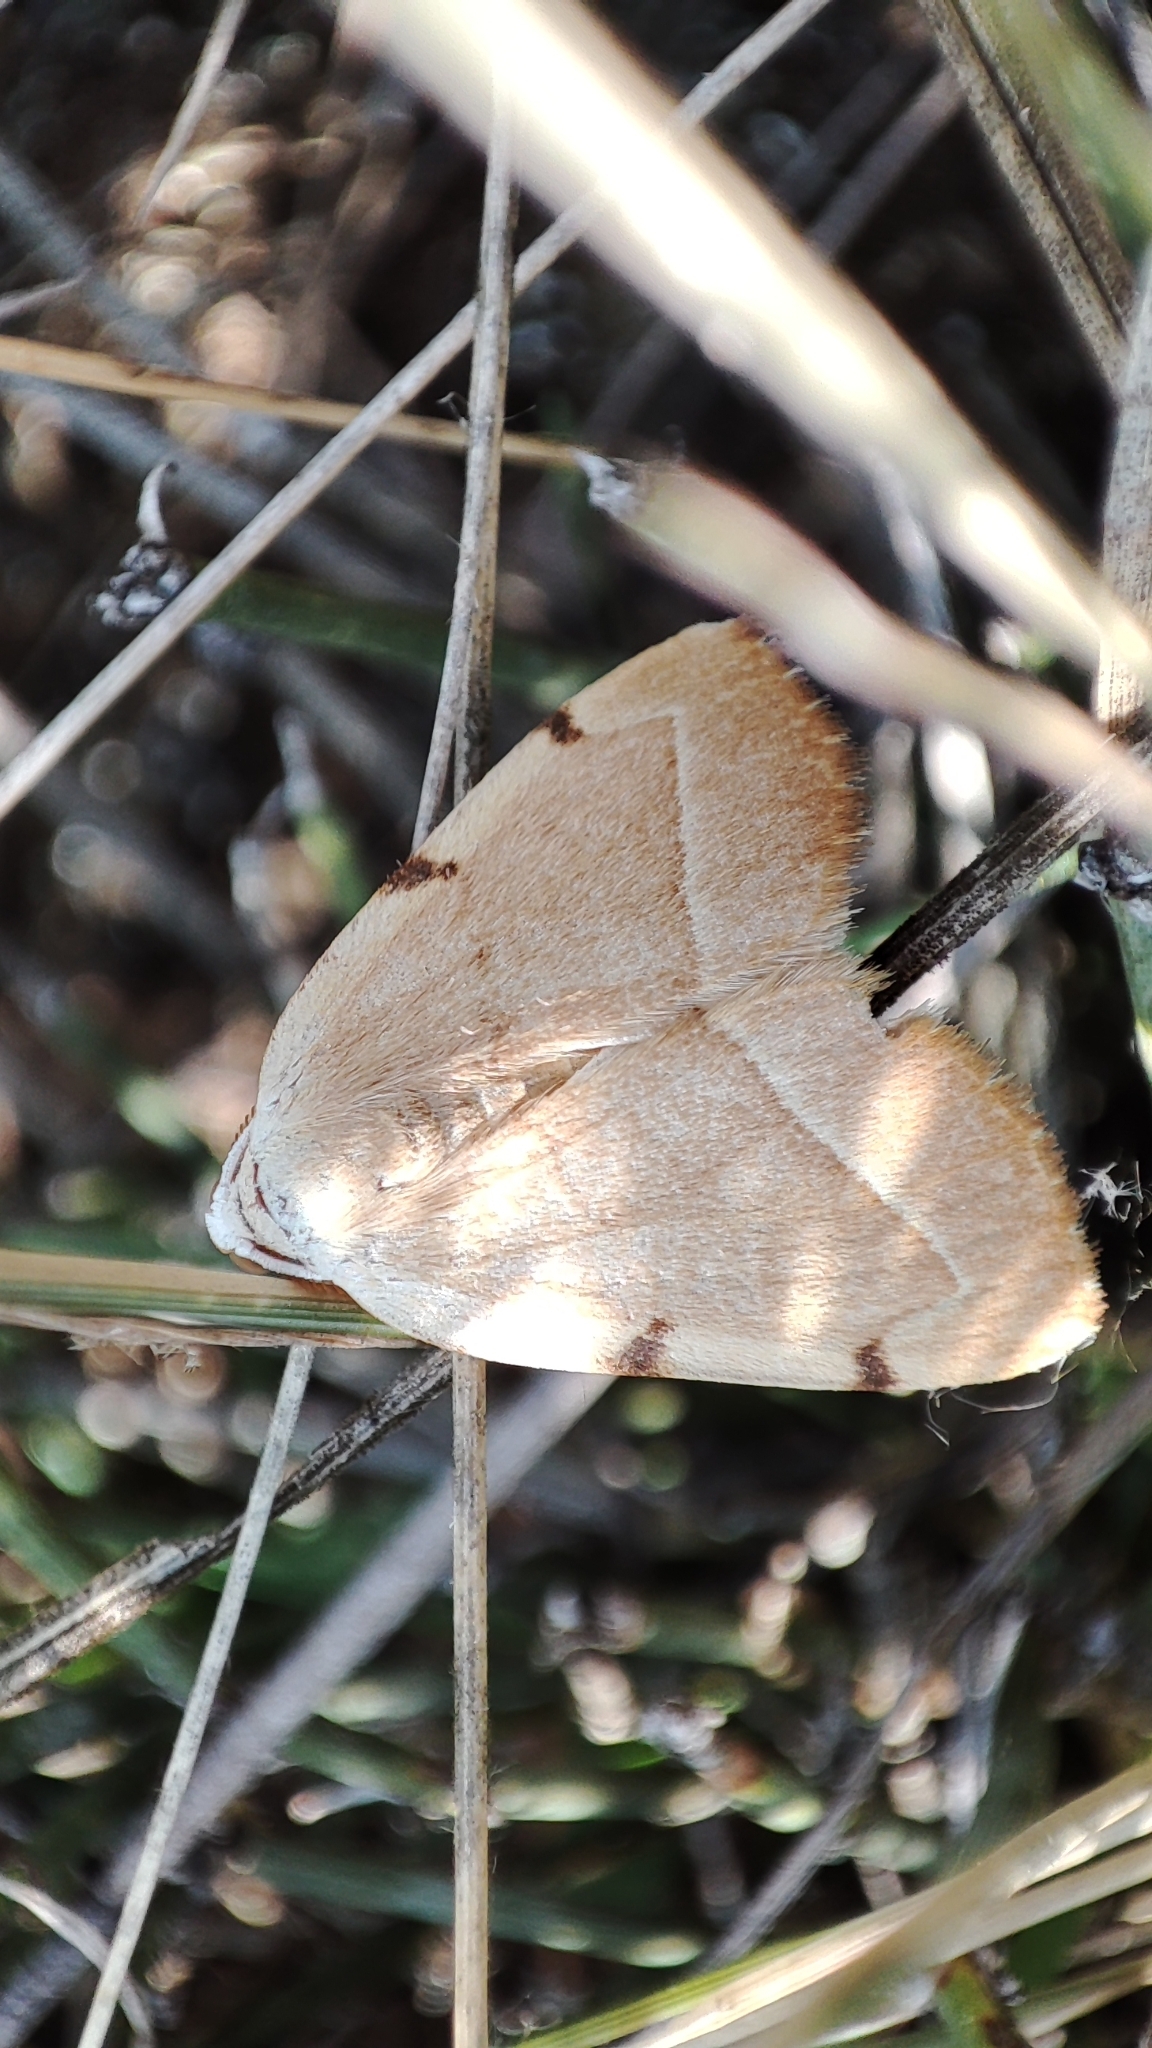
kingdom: Animalia
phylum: Arthropoda
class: Insecta
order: Lepidoptera
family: Geometridae
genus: Astegania
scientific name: Astegania honesta
